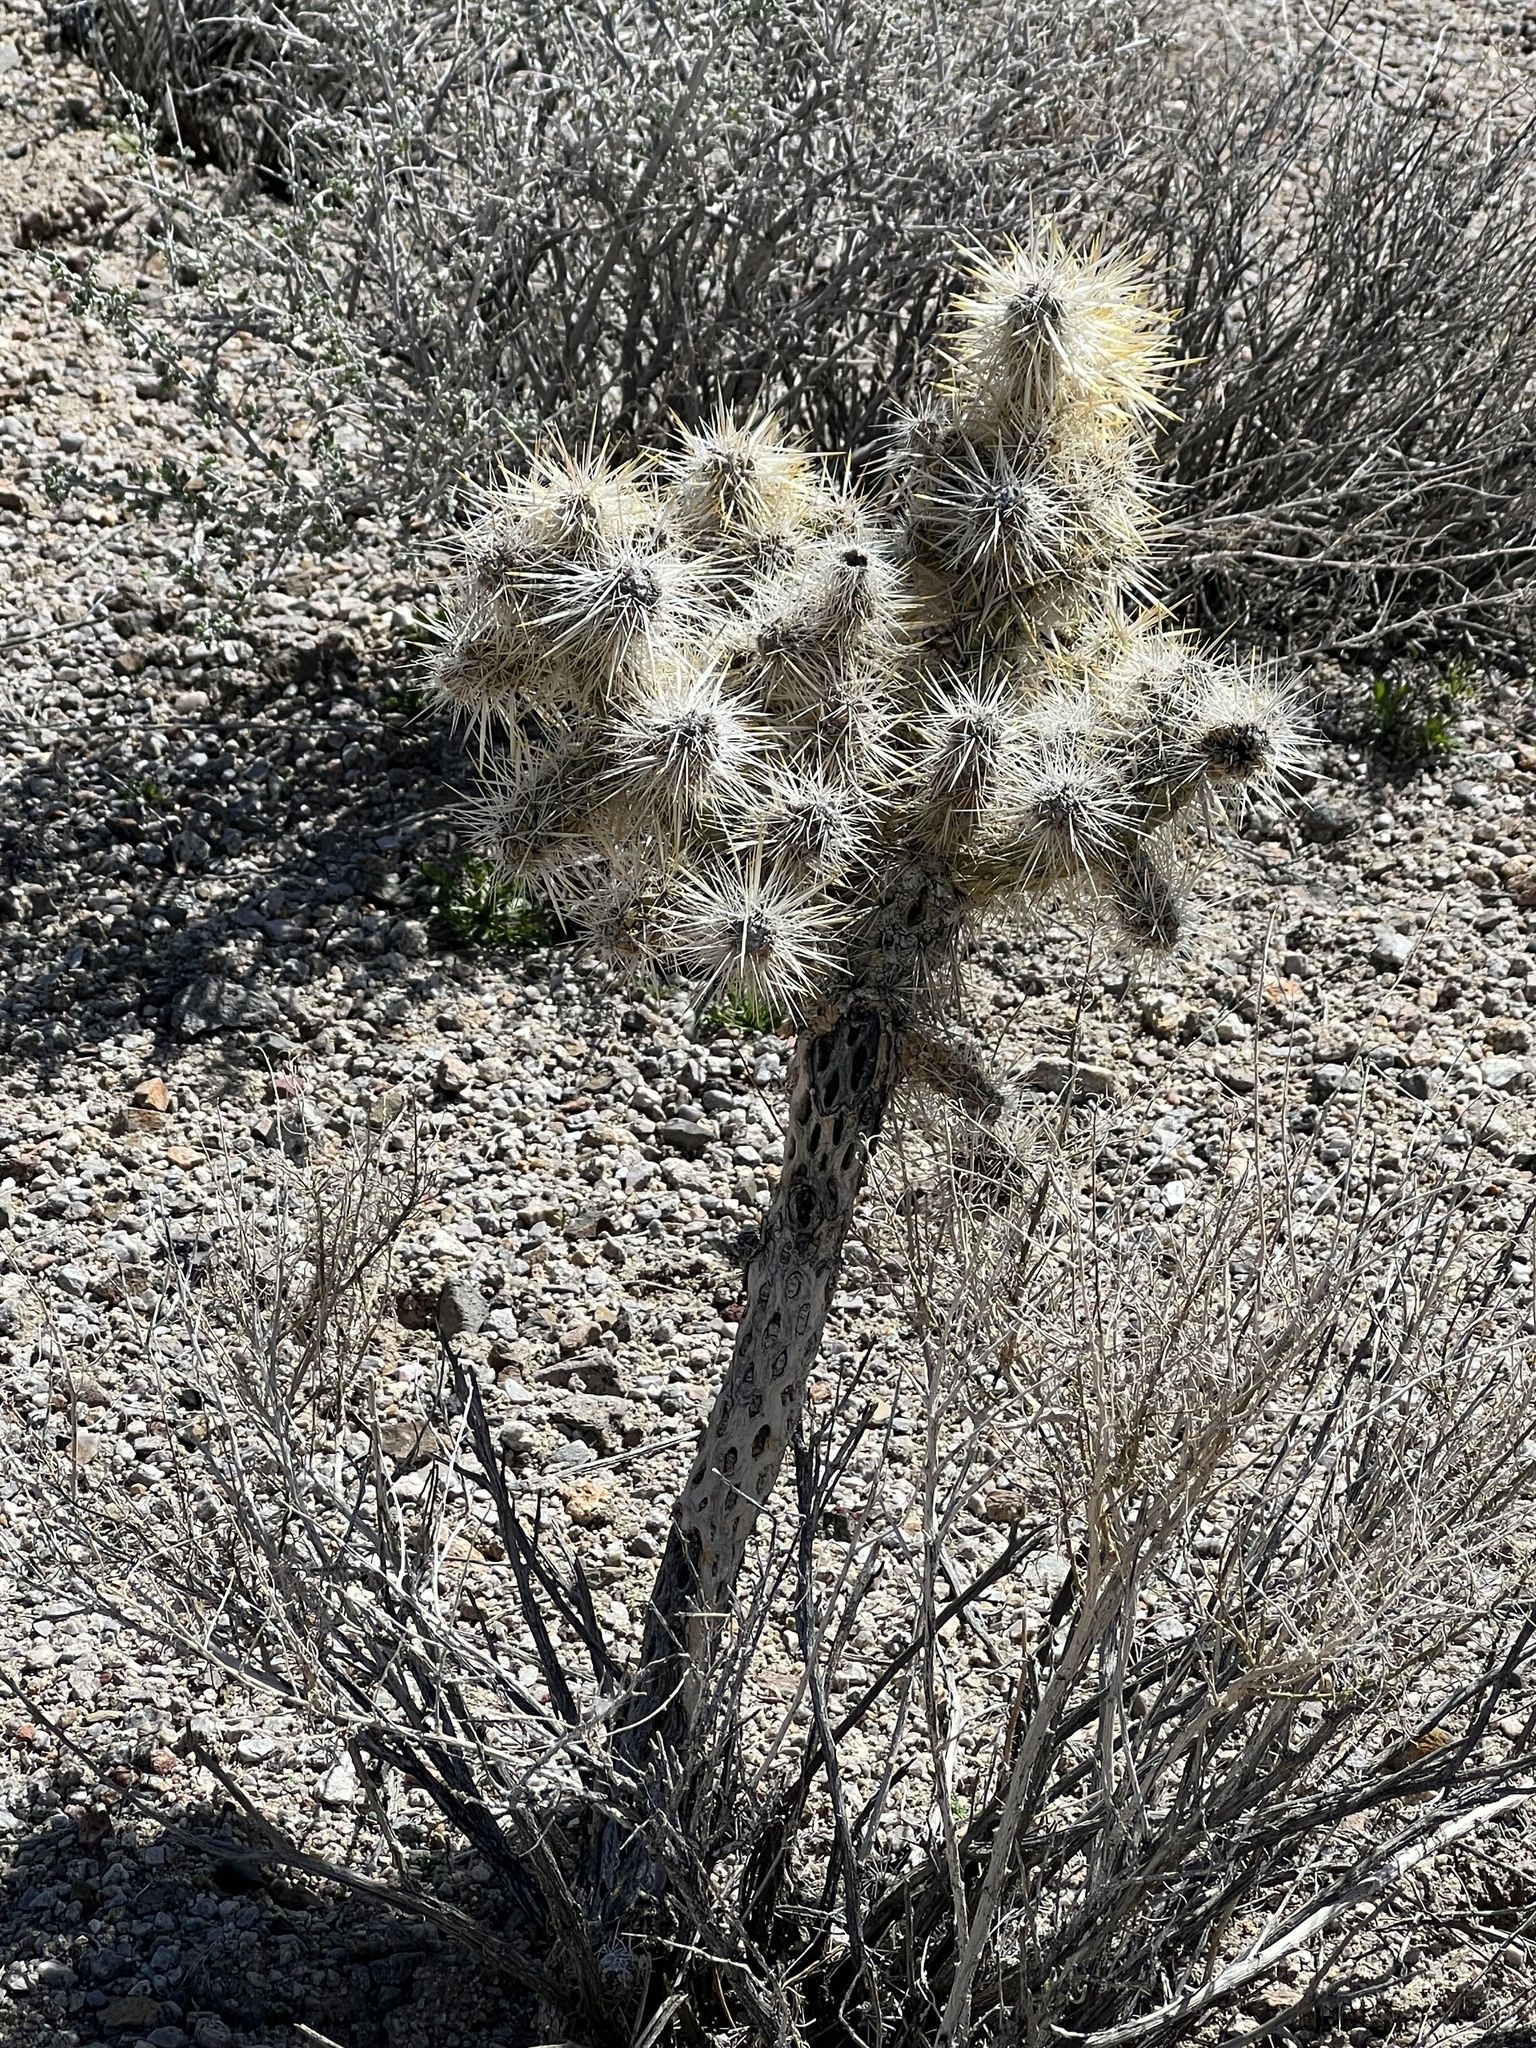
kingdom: Plantae
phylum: Tracheophyta
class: Magnoliopsida
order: Caryophyllales
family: Cactaceae
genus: Cylindropuntia
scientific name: Cylindropuntia echinocarpa
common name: Ground cholla
